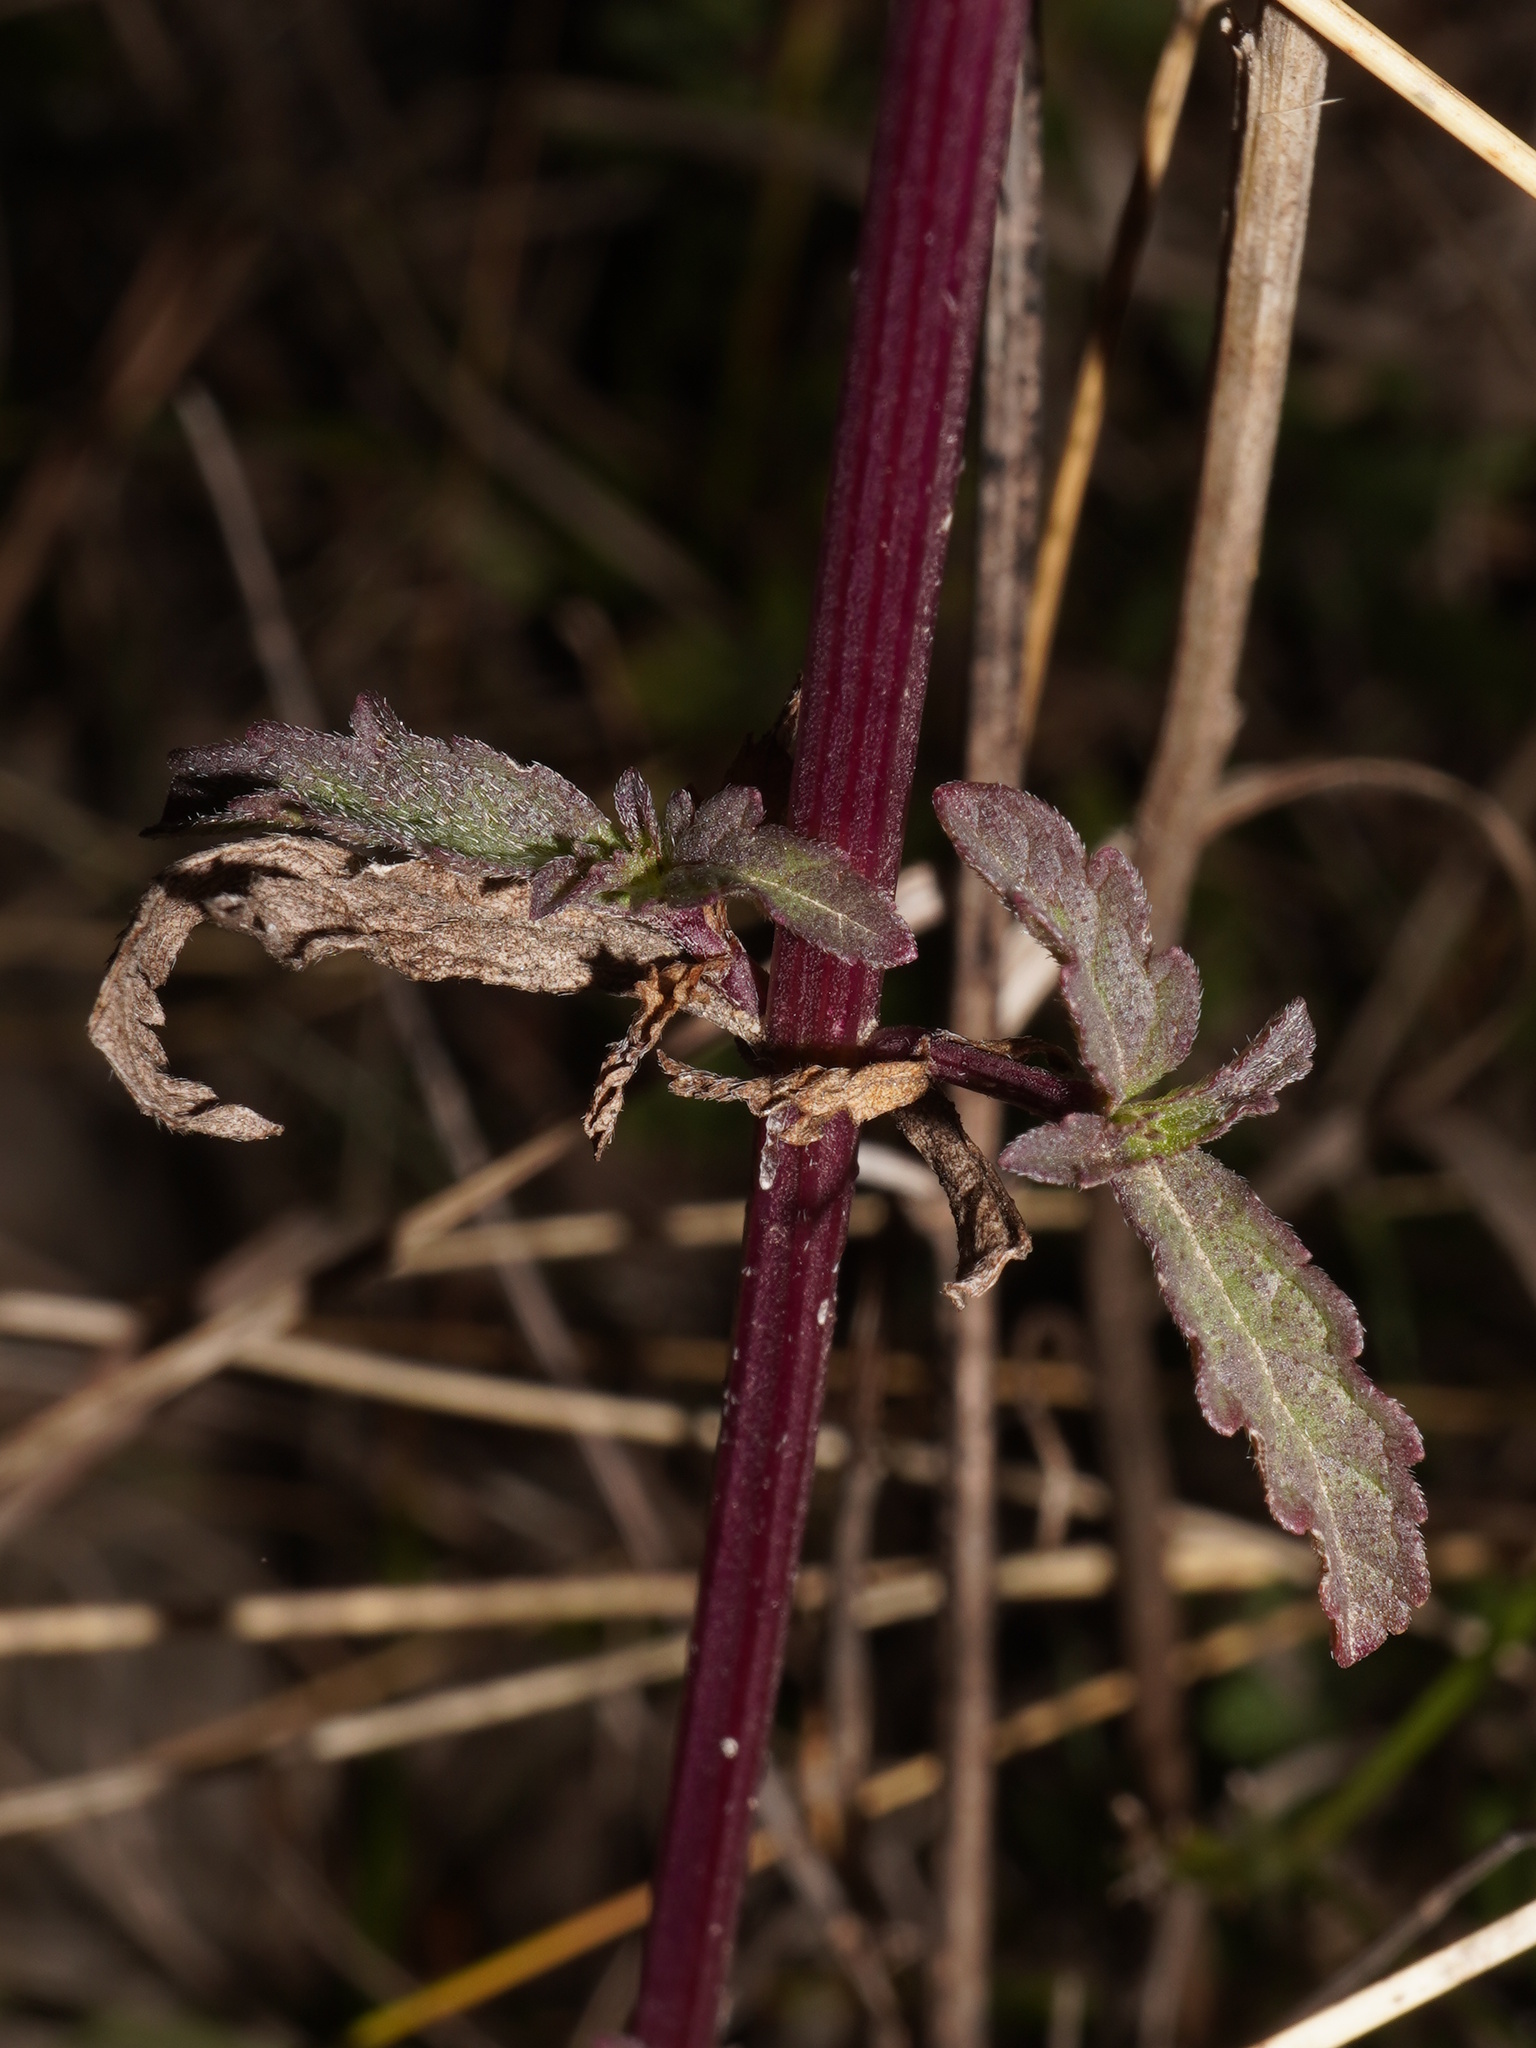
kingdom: Plantae
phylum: Tracheophyta
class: Magnoliopsida
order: Lamiales
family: Verbenaceae
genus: Verbena
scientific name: Verbena officinalis
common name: Vervain
